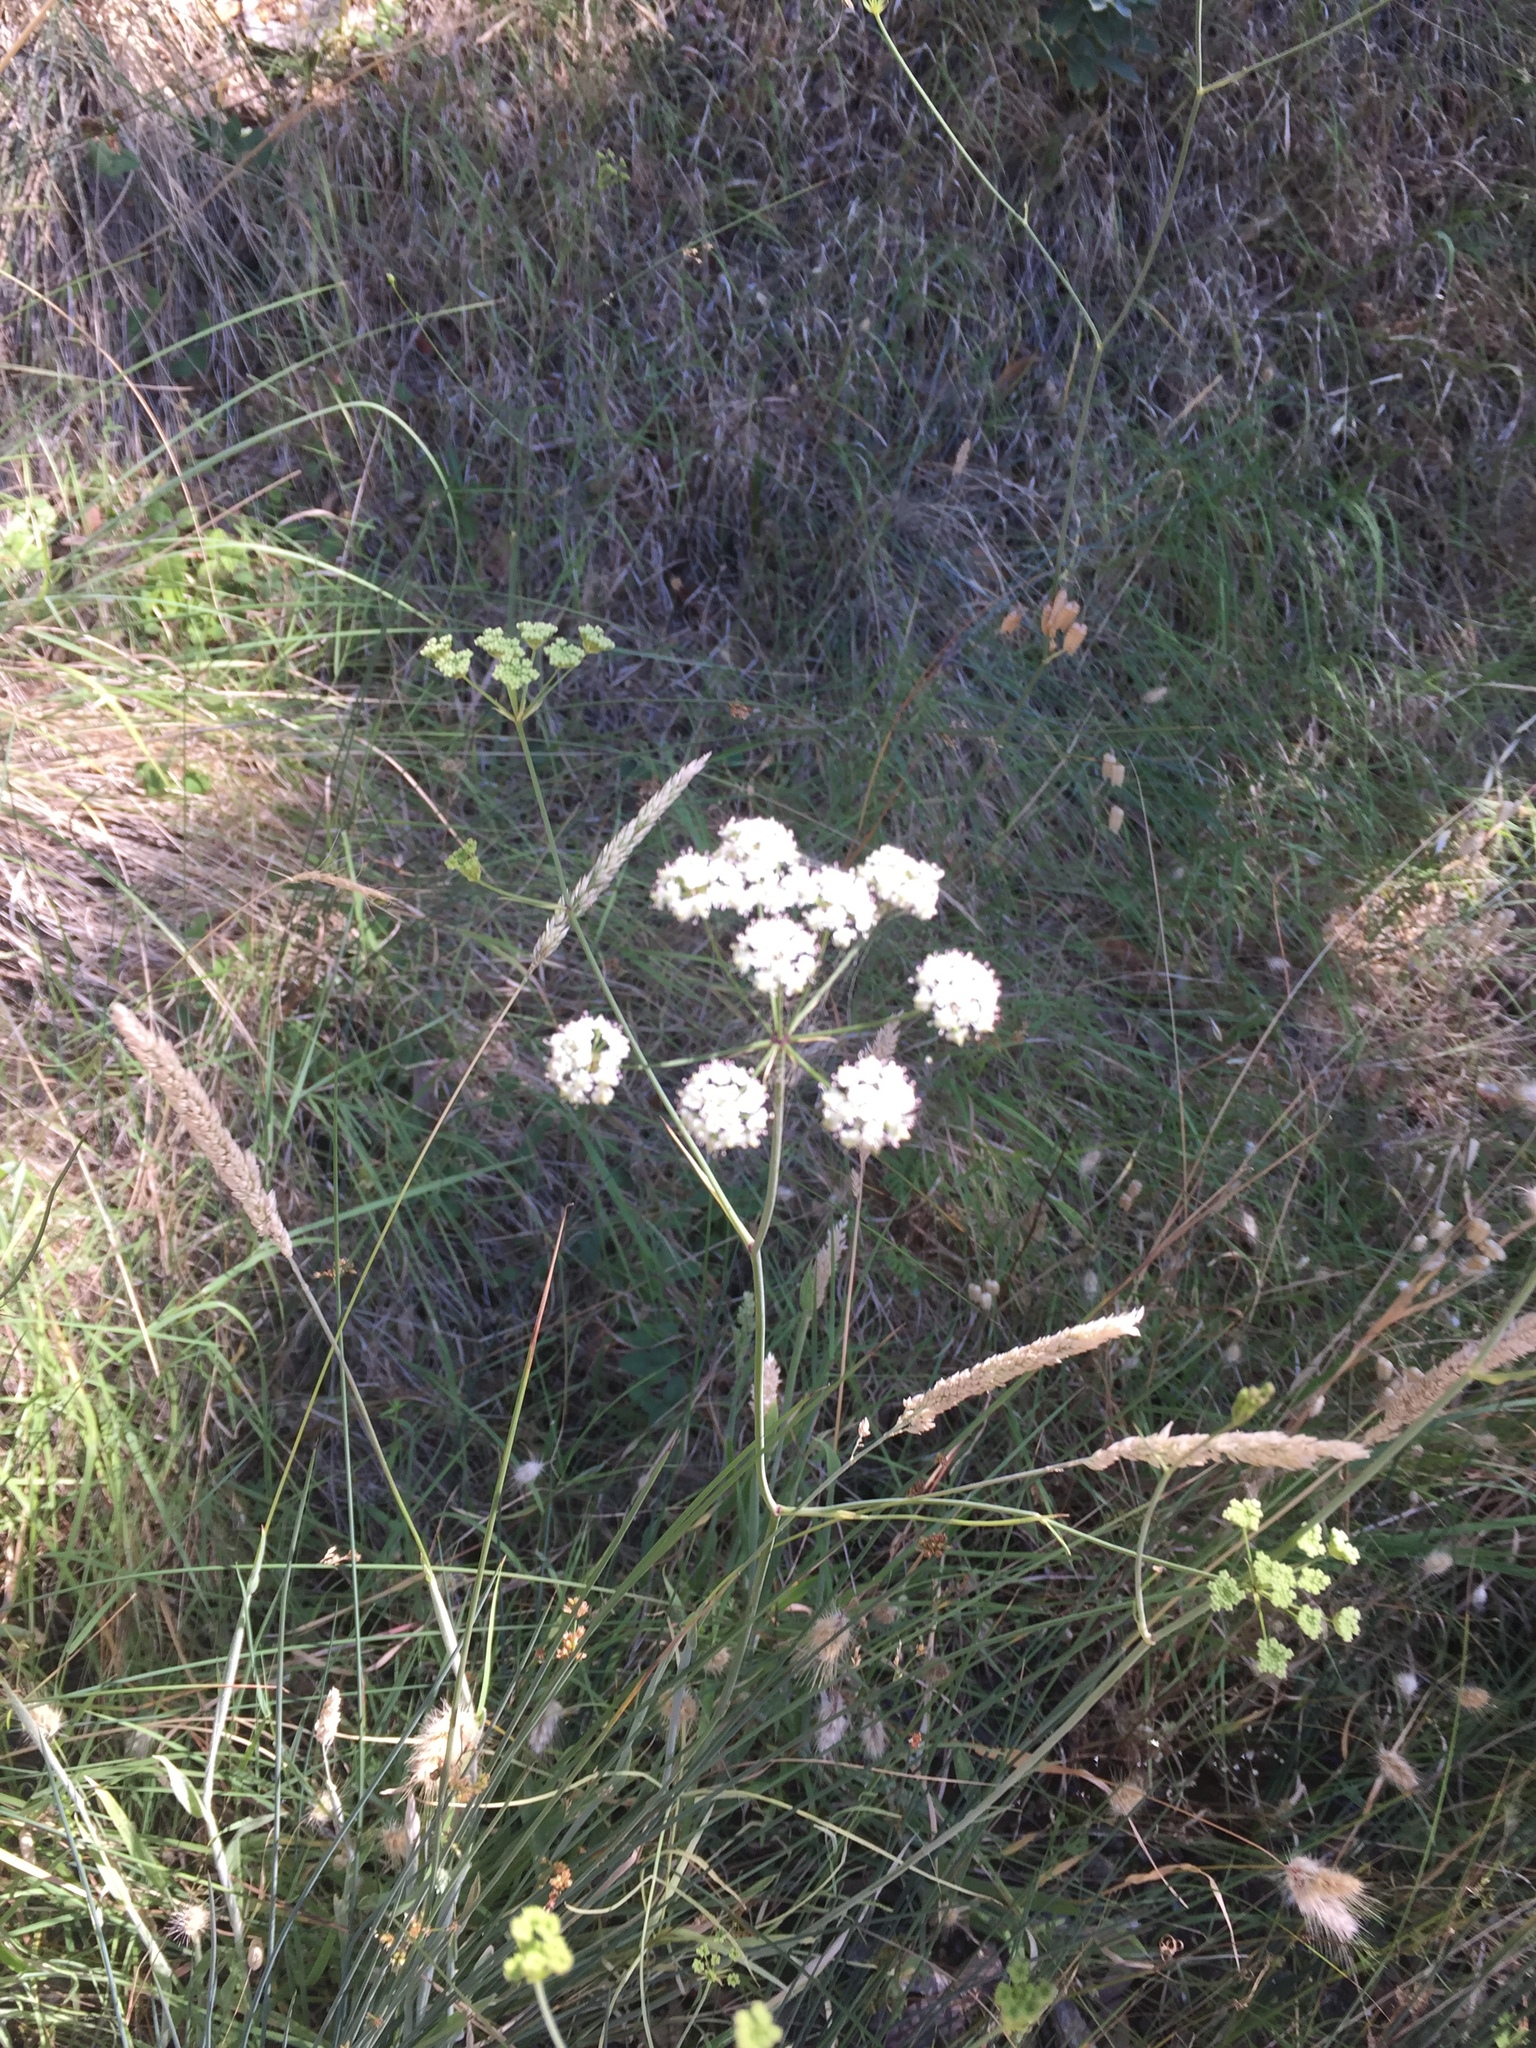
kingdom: Plantae
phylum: Tracheophyta
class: Magnoliopsida
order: Apiales
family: Apiaceae
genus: Perideridia
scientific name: Perideridia kelloggii
